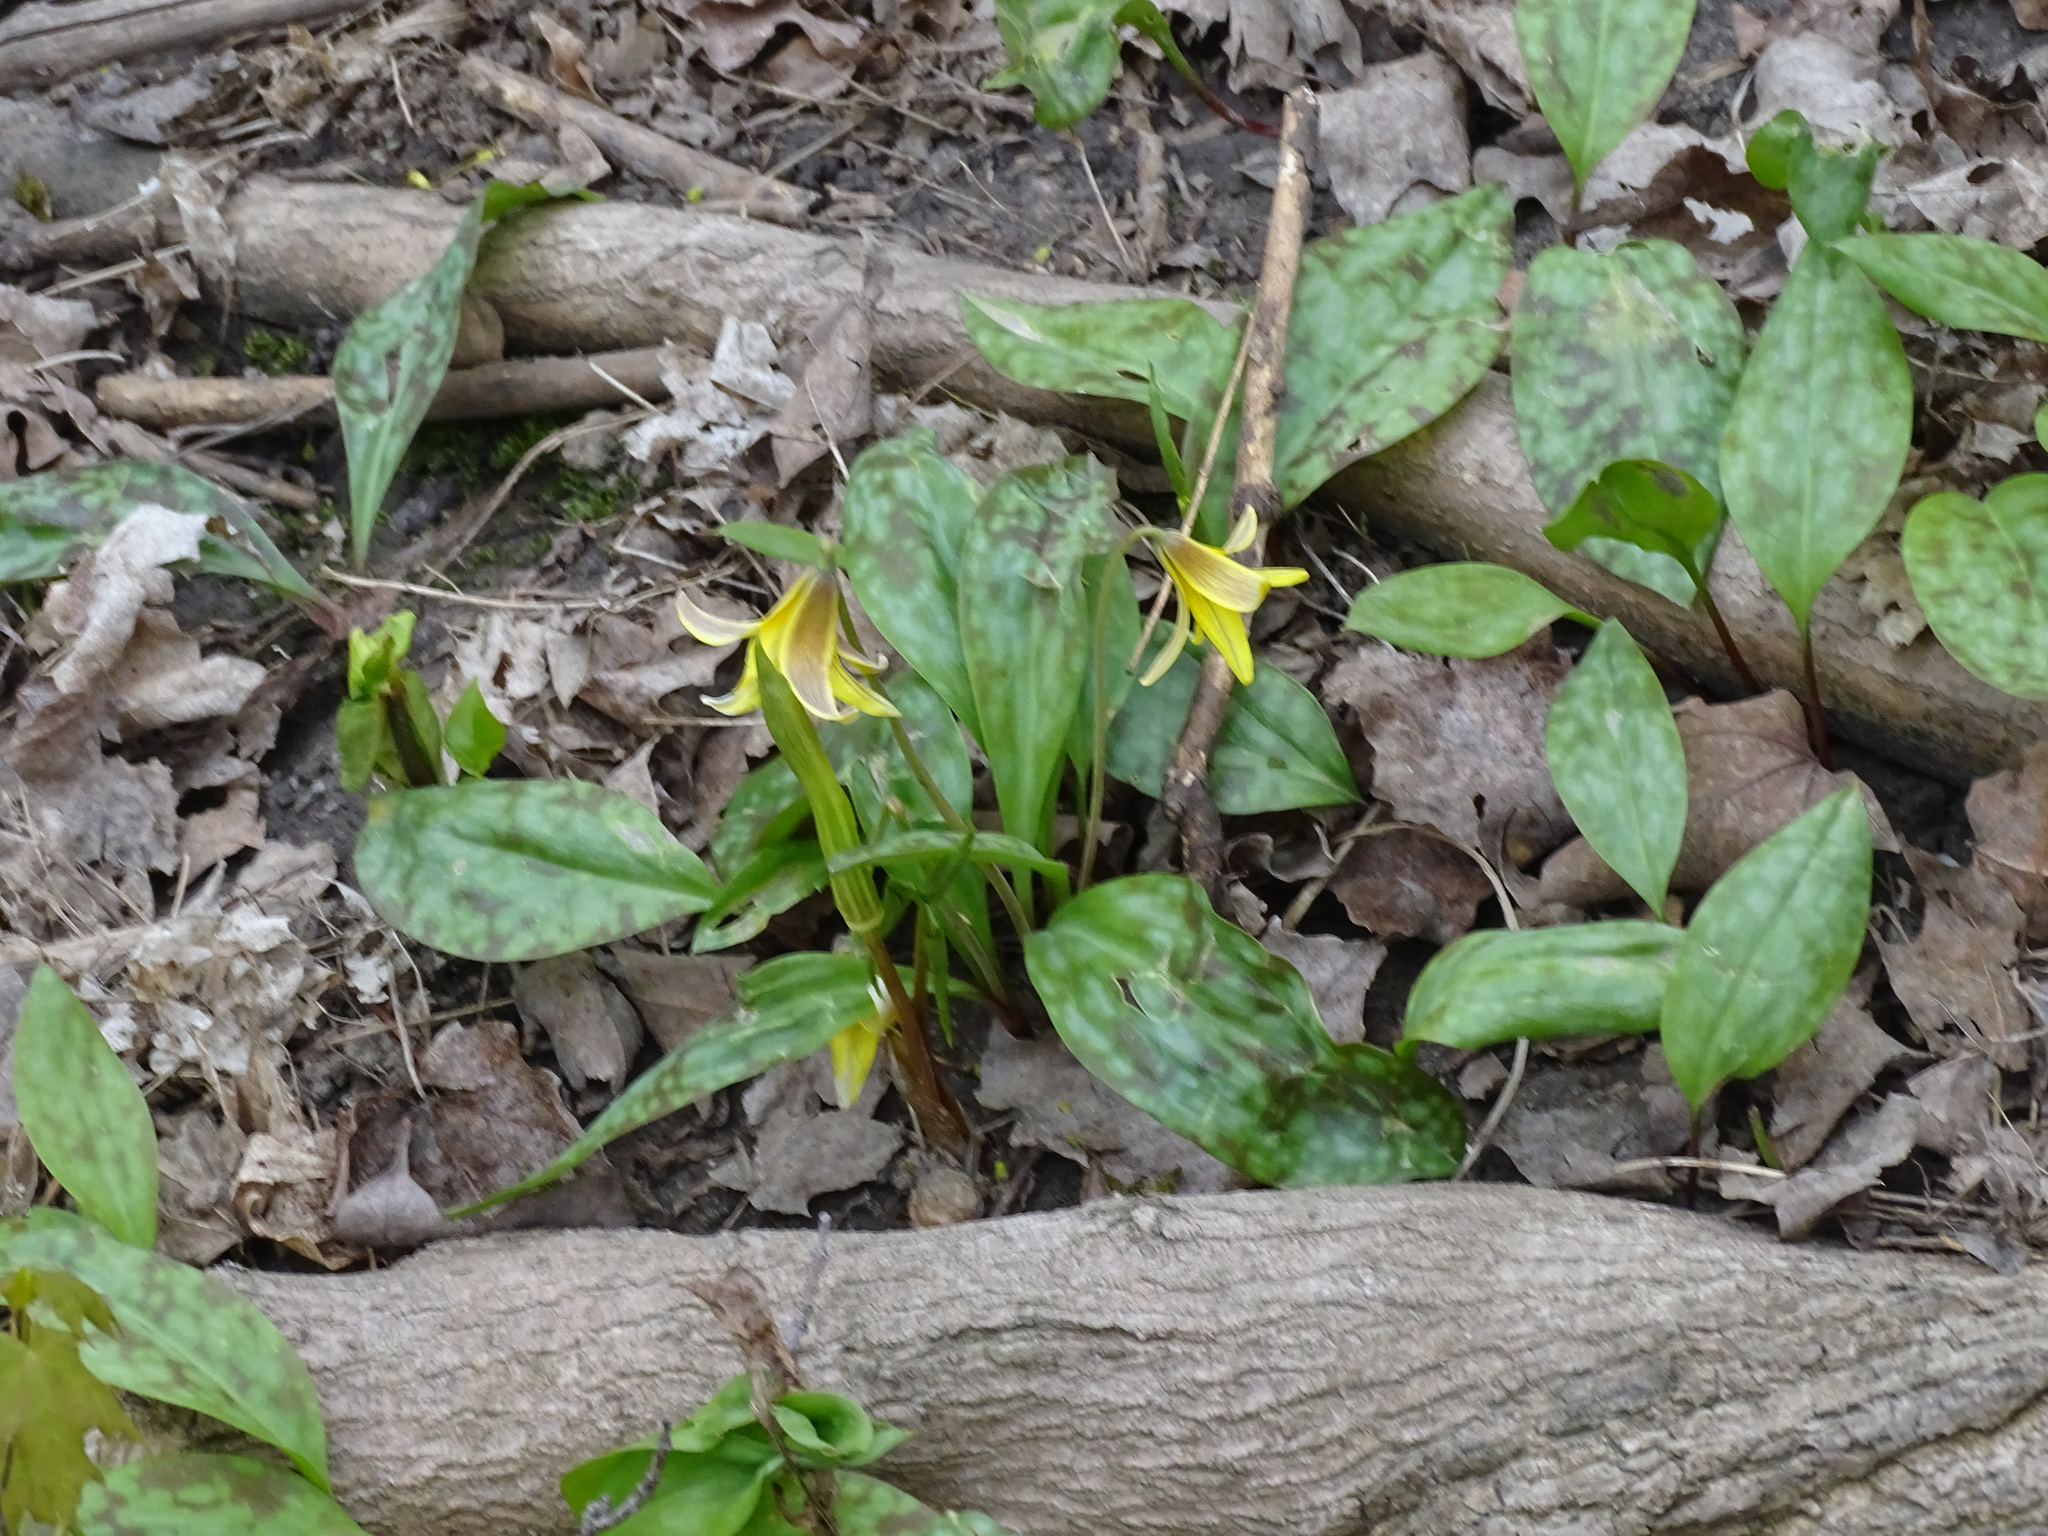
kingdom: Plantae
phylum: Tracheophyta
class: Liliopsida
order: Liliales
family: Liliaceae
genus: Erythronium
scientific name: Erythronium americanum
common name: Yellow adder's-tongue
